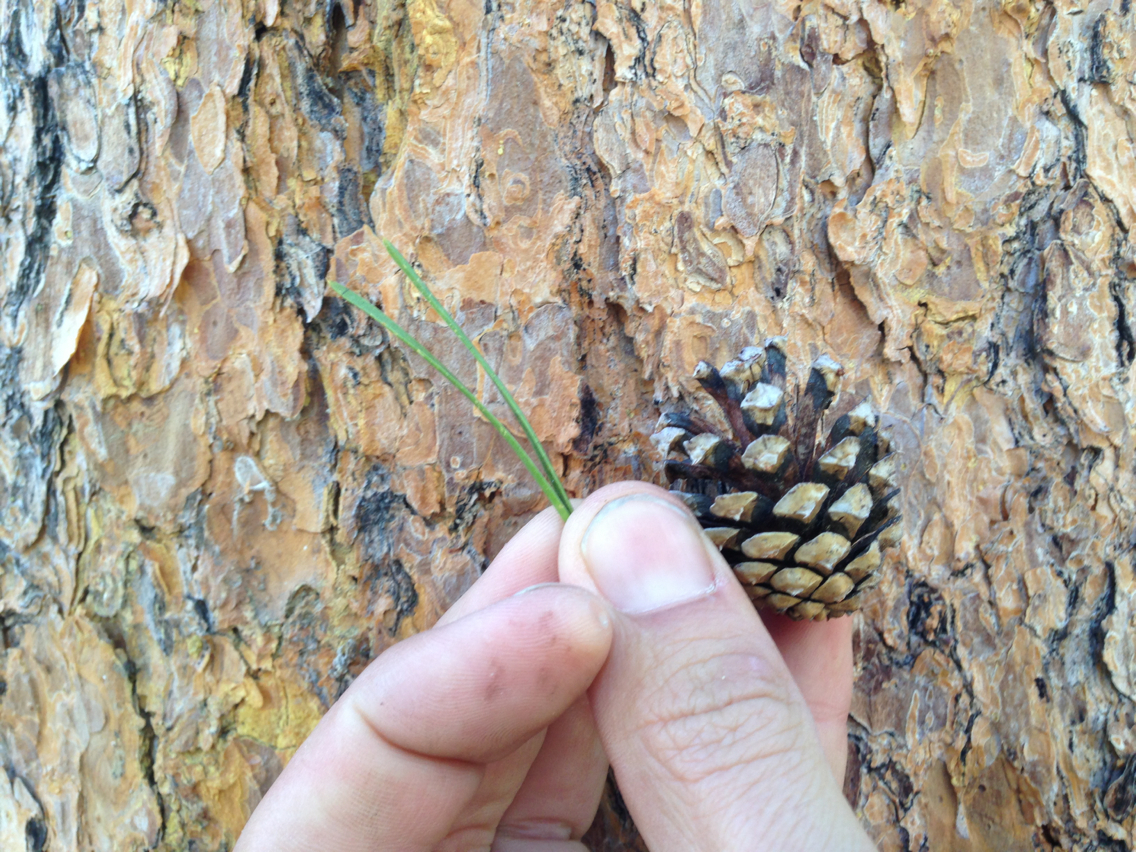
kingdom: Plantae
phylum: Tracheophyta
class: Pinopsida
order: Pinales
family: Pinaceae
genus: Pinus
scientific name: Pinus contorta
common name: Lodgepole pine
